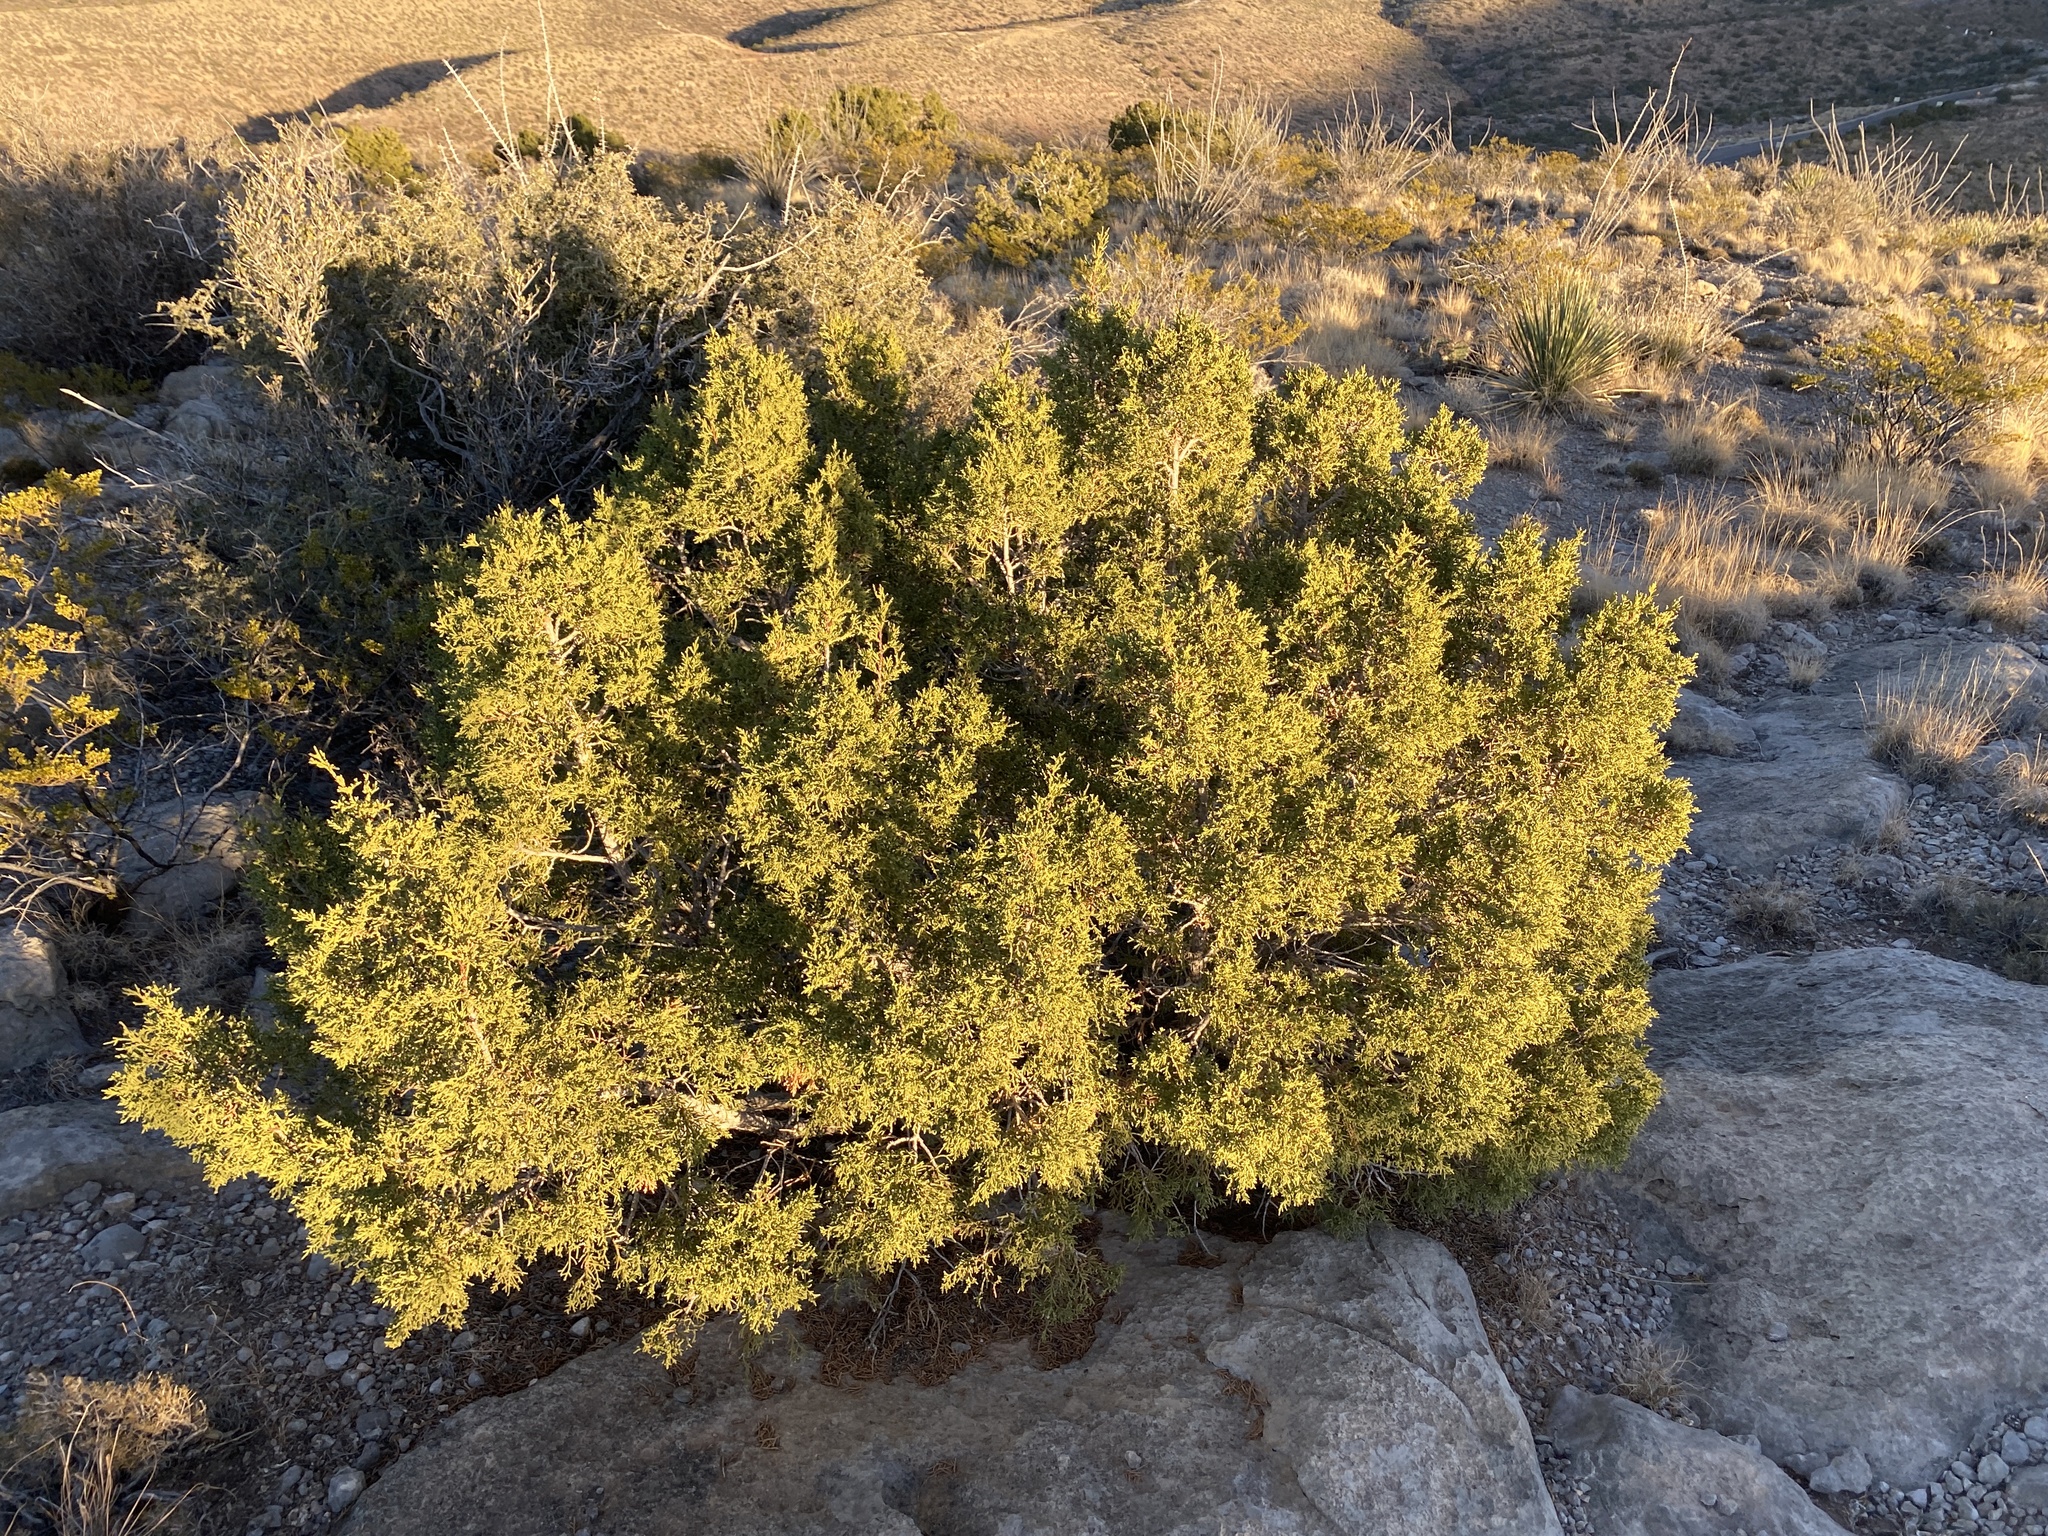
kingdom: Plantae
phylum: Tracheophyta
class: Pinopsida
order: Pinales
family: Cupressaceae
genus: Juniperus
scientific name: Juniperus monosperma
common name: One-seed juniper
